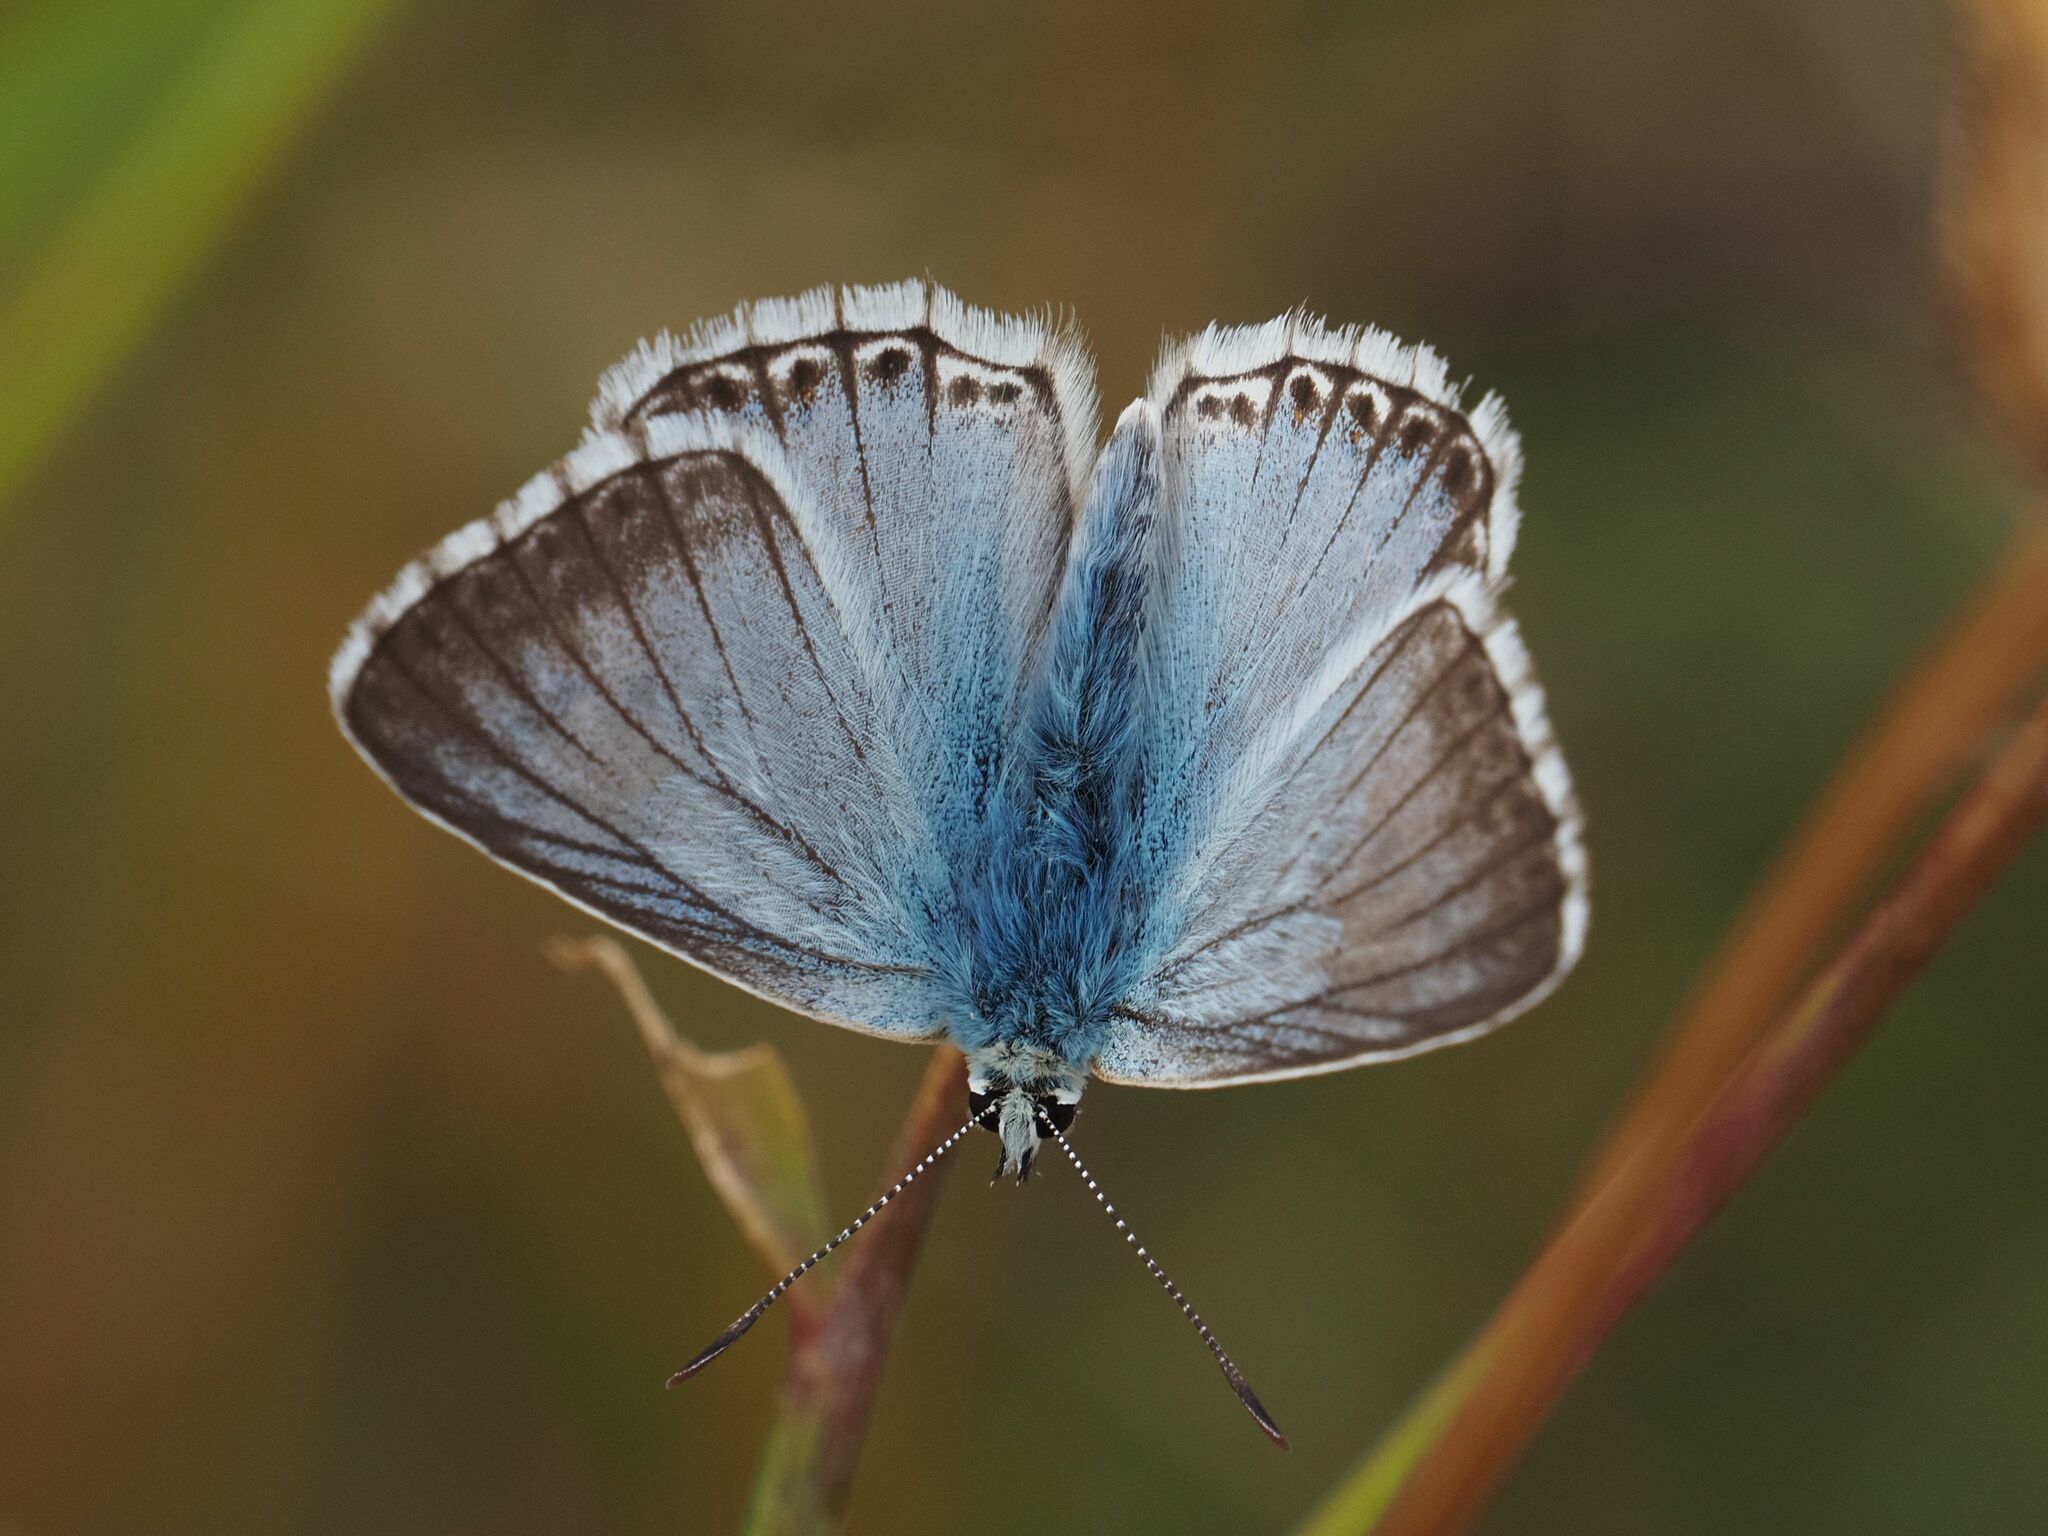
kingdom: Animalia
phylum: Arthropoda
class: Insecta
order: Lepidoptera
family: Lycaenidae
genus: Lysandra
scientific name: Lysandra coridon
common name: Chalkhill blue
